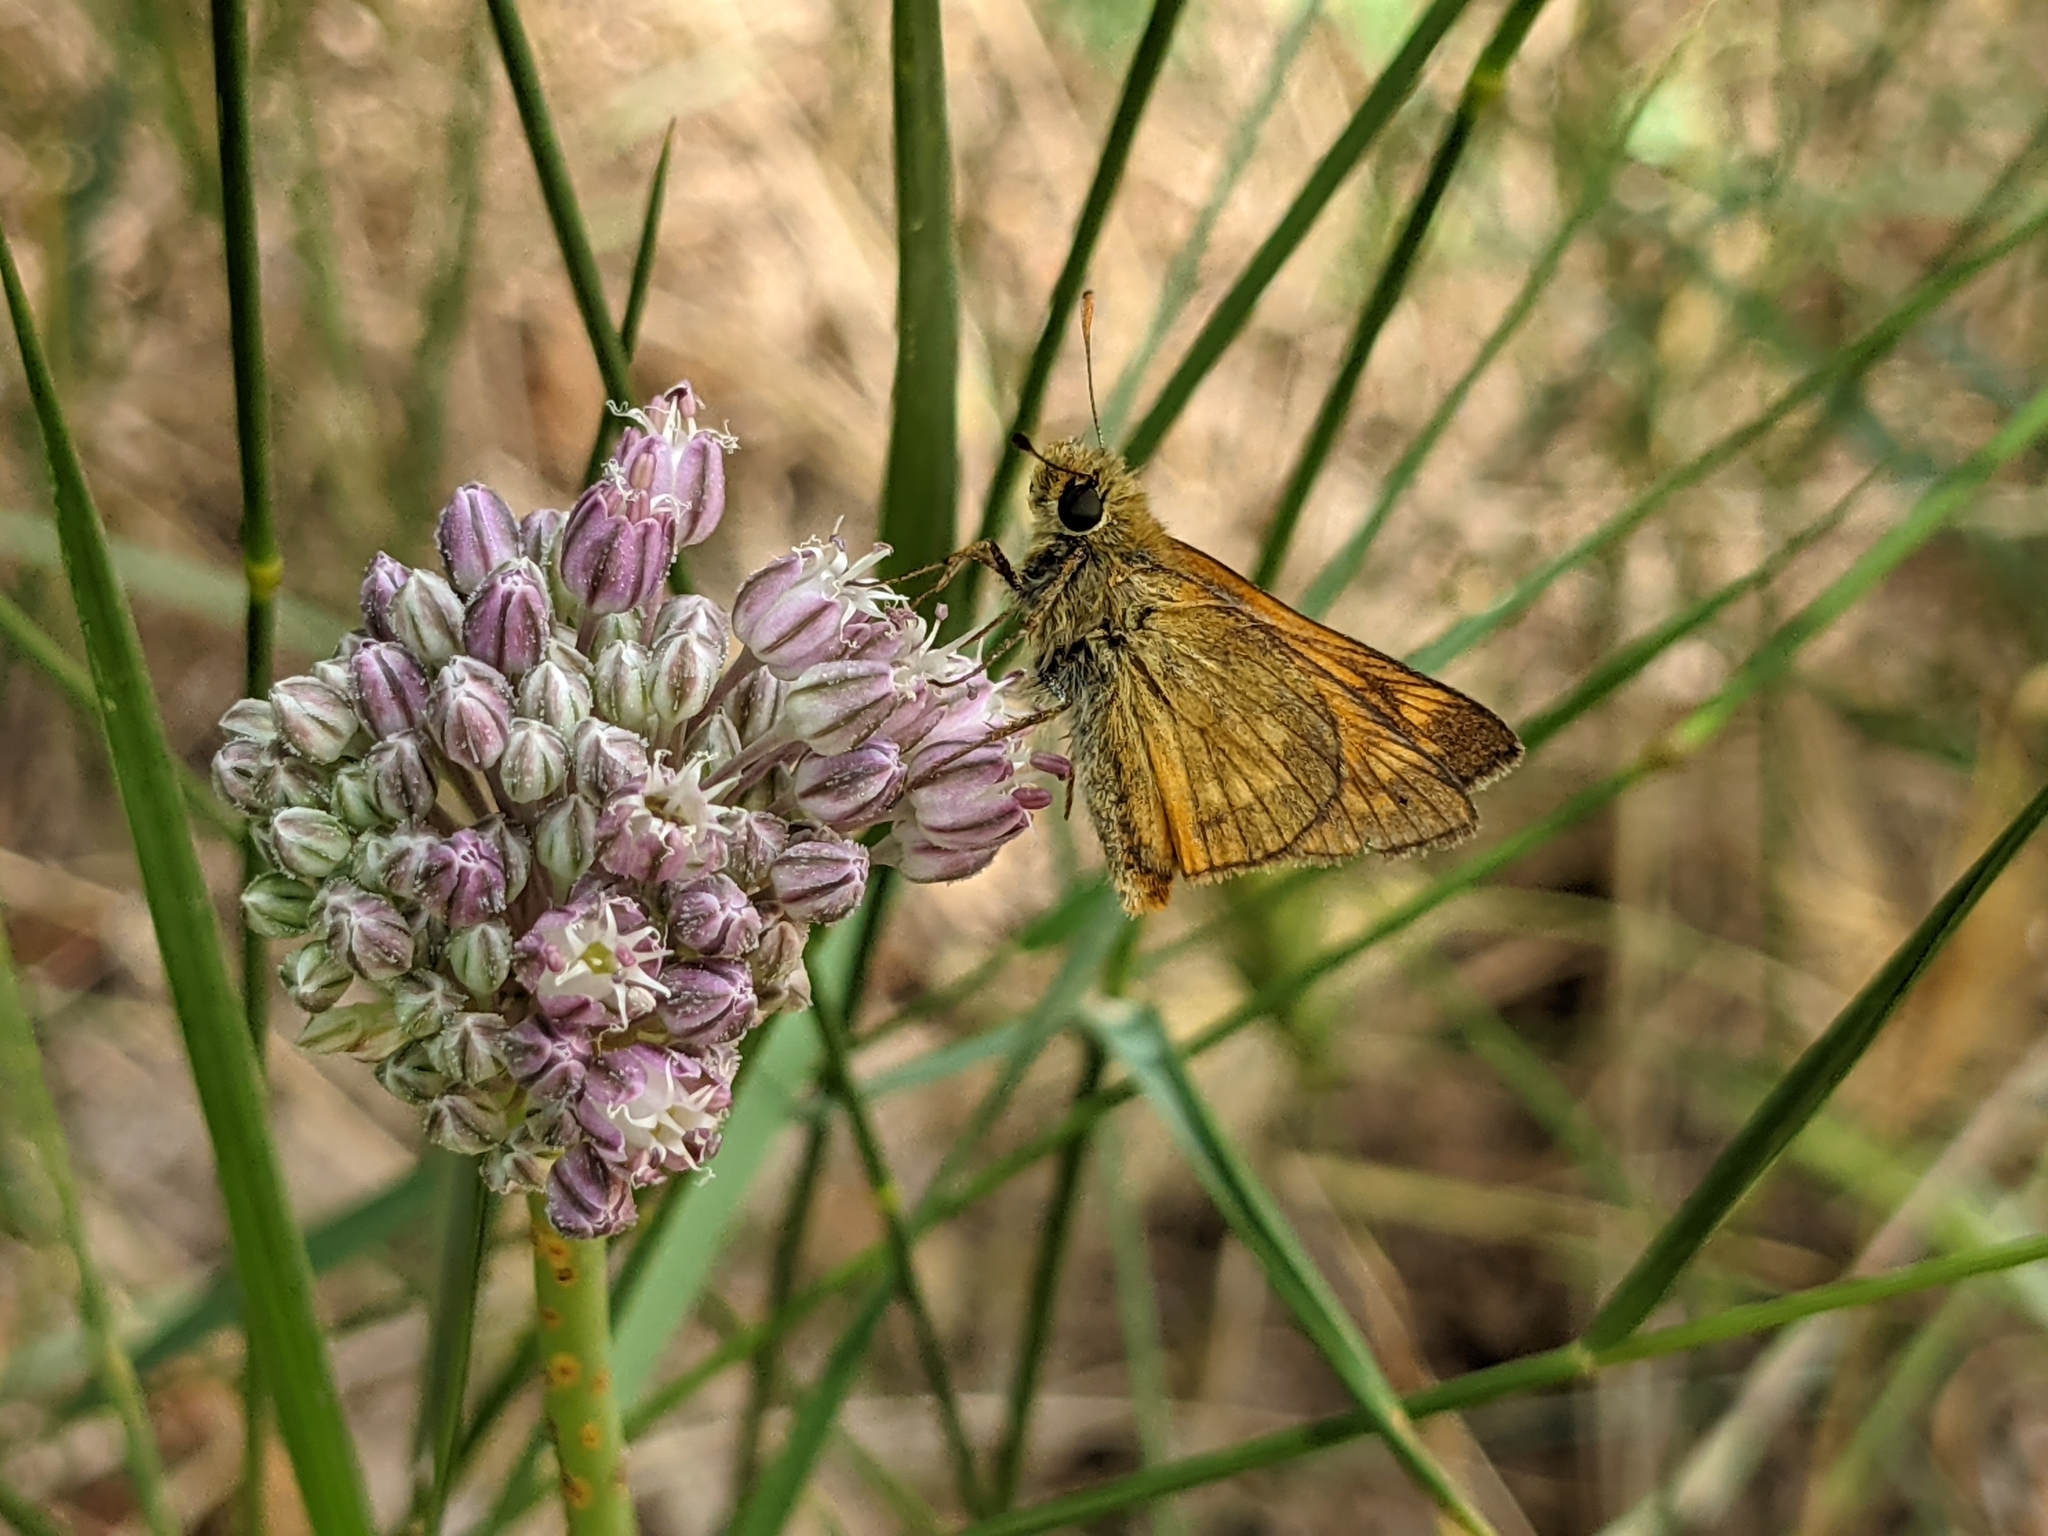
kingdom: Animalia
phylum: Arthropoda
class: Insecta
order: Lepidoptera
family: Hesperiidae
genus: Ochlodes
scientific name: Ochlodes venata
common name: Large skipper
